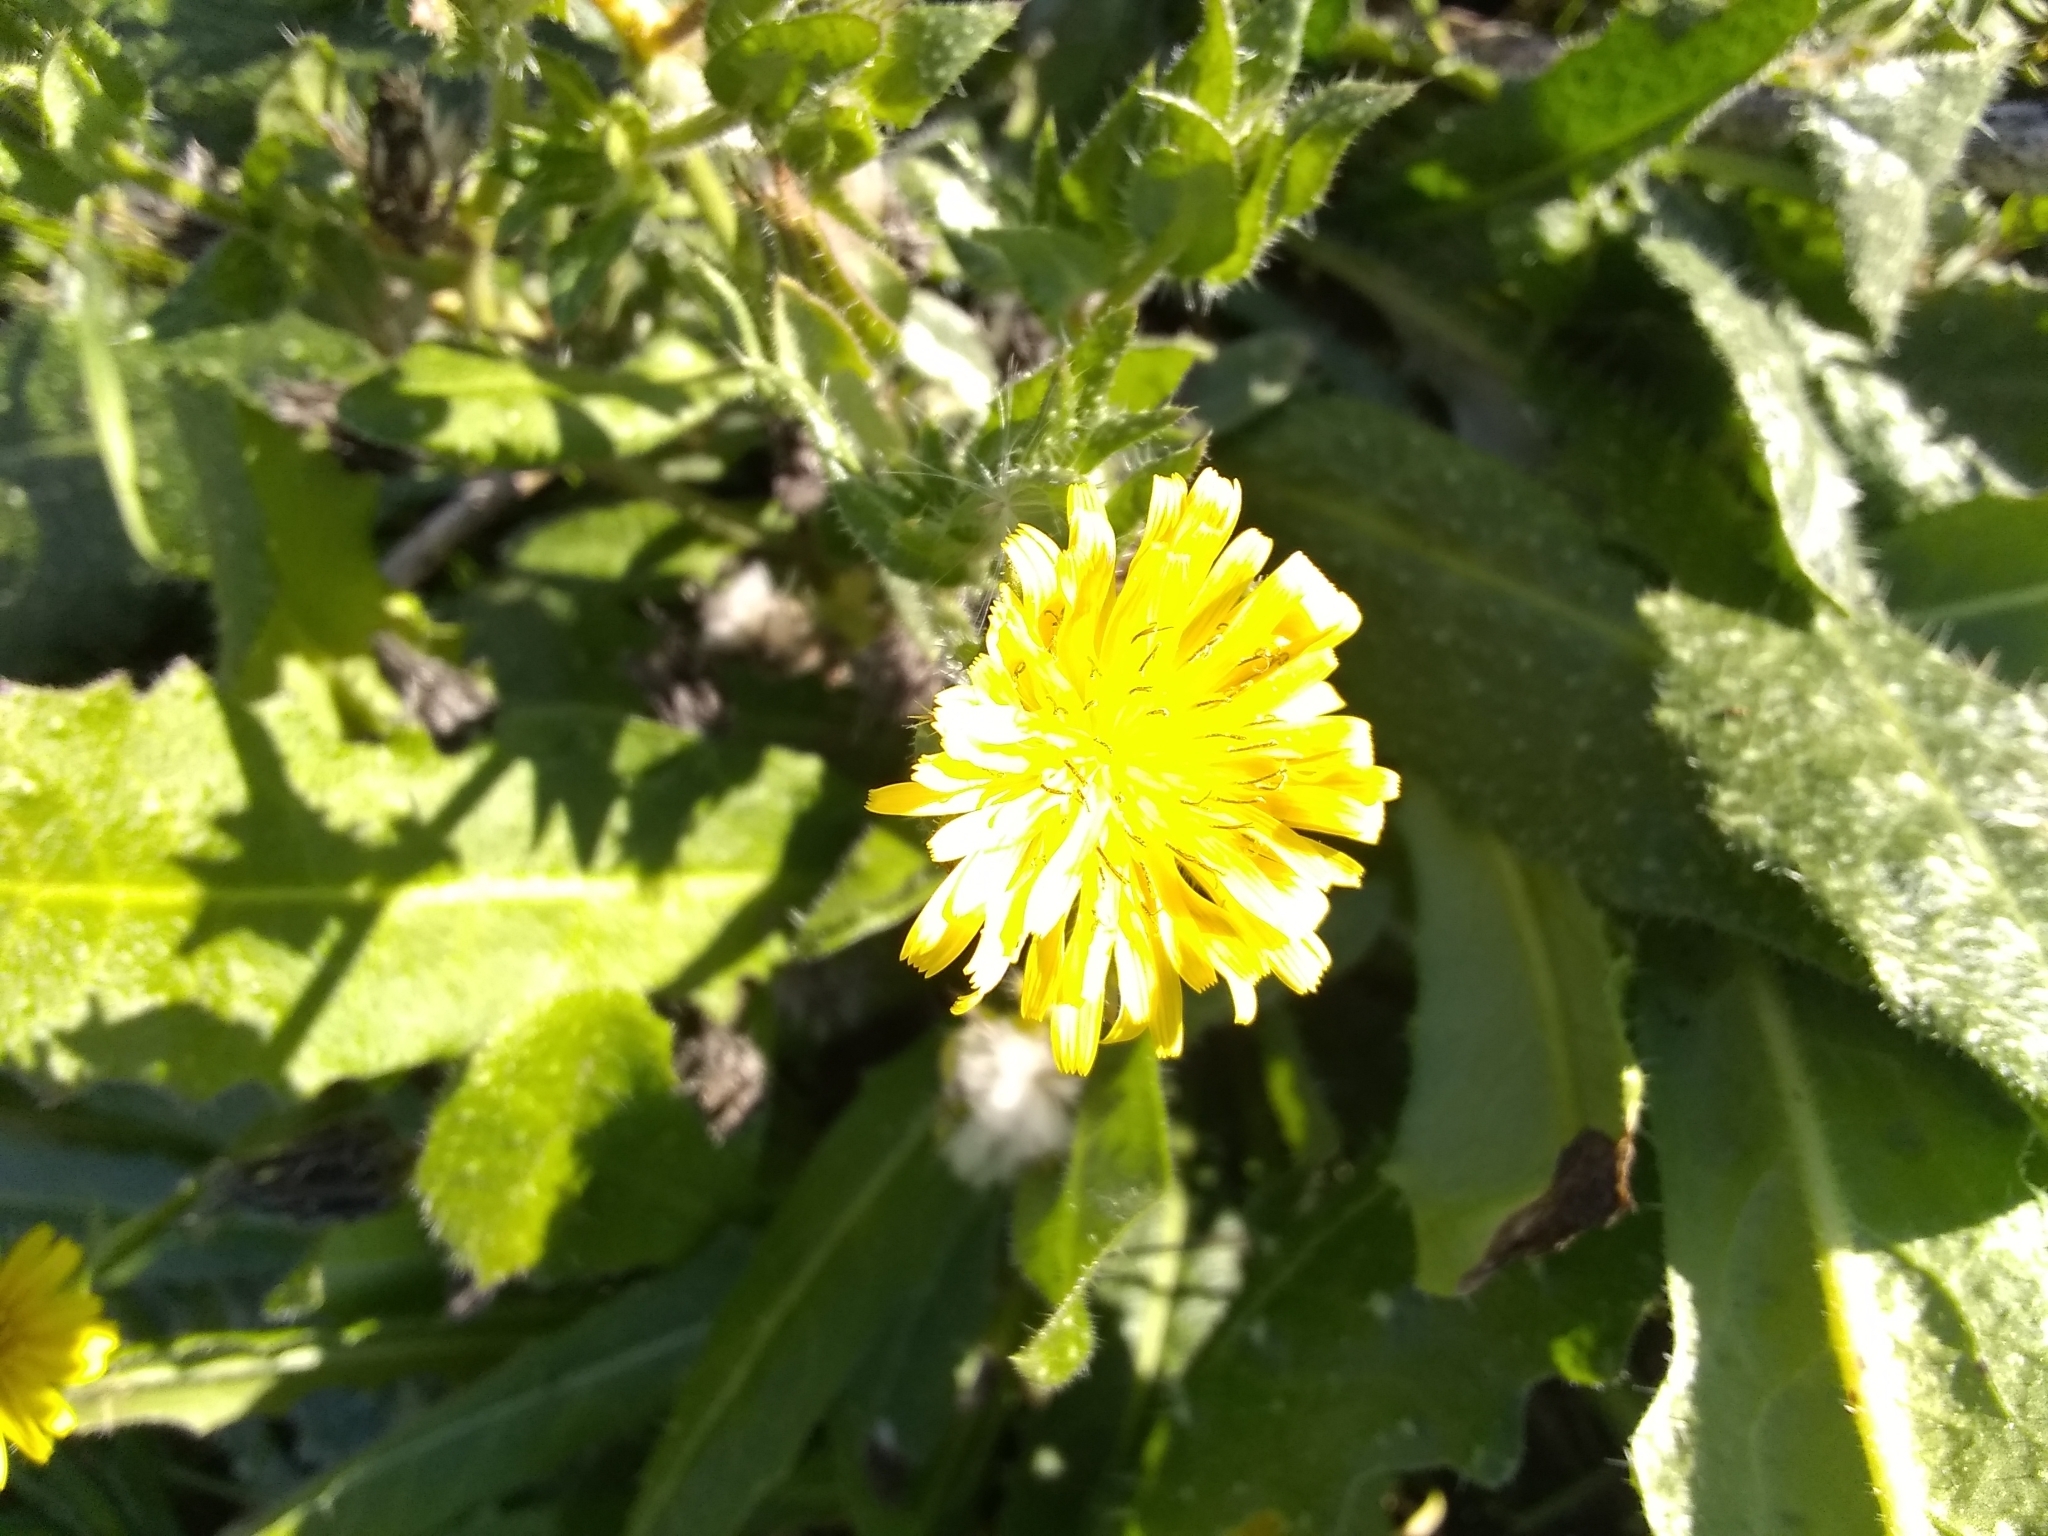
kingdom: Plantae
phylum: Tracheophyta
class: Magnoliopsida
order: Asterales
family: Asteraceae
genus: Helminthotheca
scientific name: Helminthotheca echioides
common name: Ox-tongue
